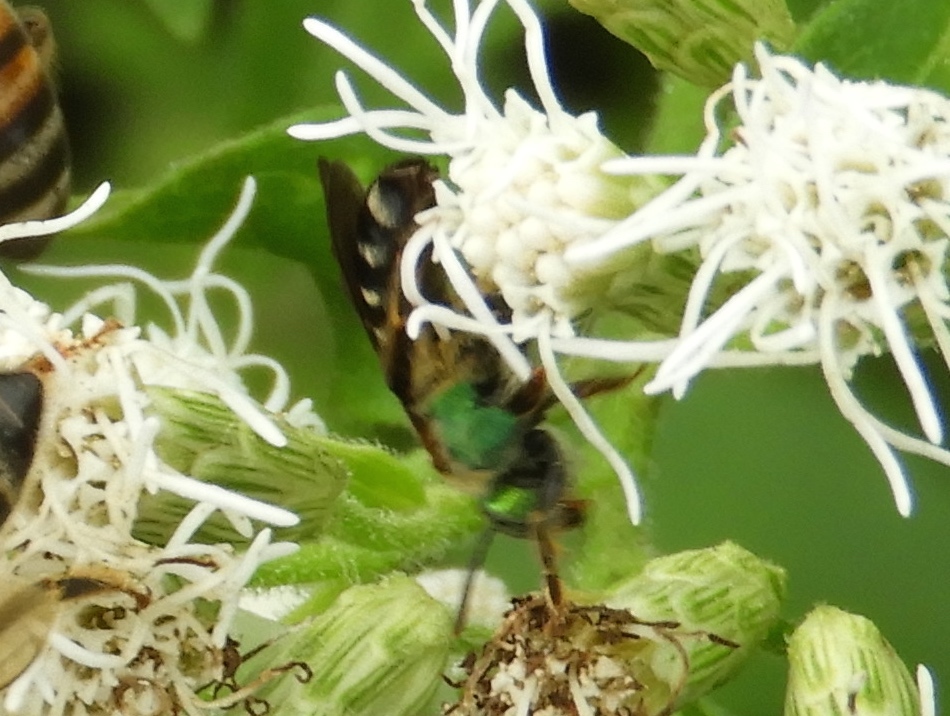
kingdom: Animalia
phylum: Arthropoda
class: Insecta
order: Hymenoptera
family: Halictidae
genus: Agapostemon
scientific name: Agapostemon nasutus
